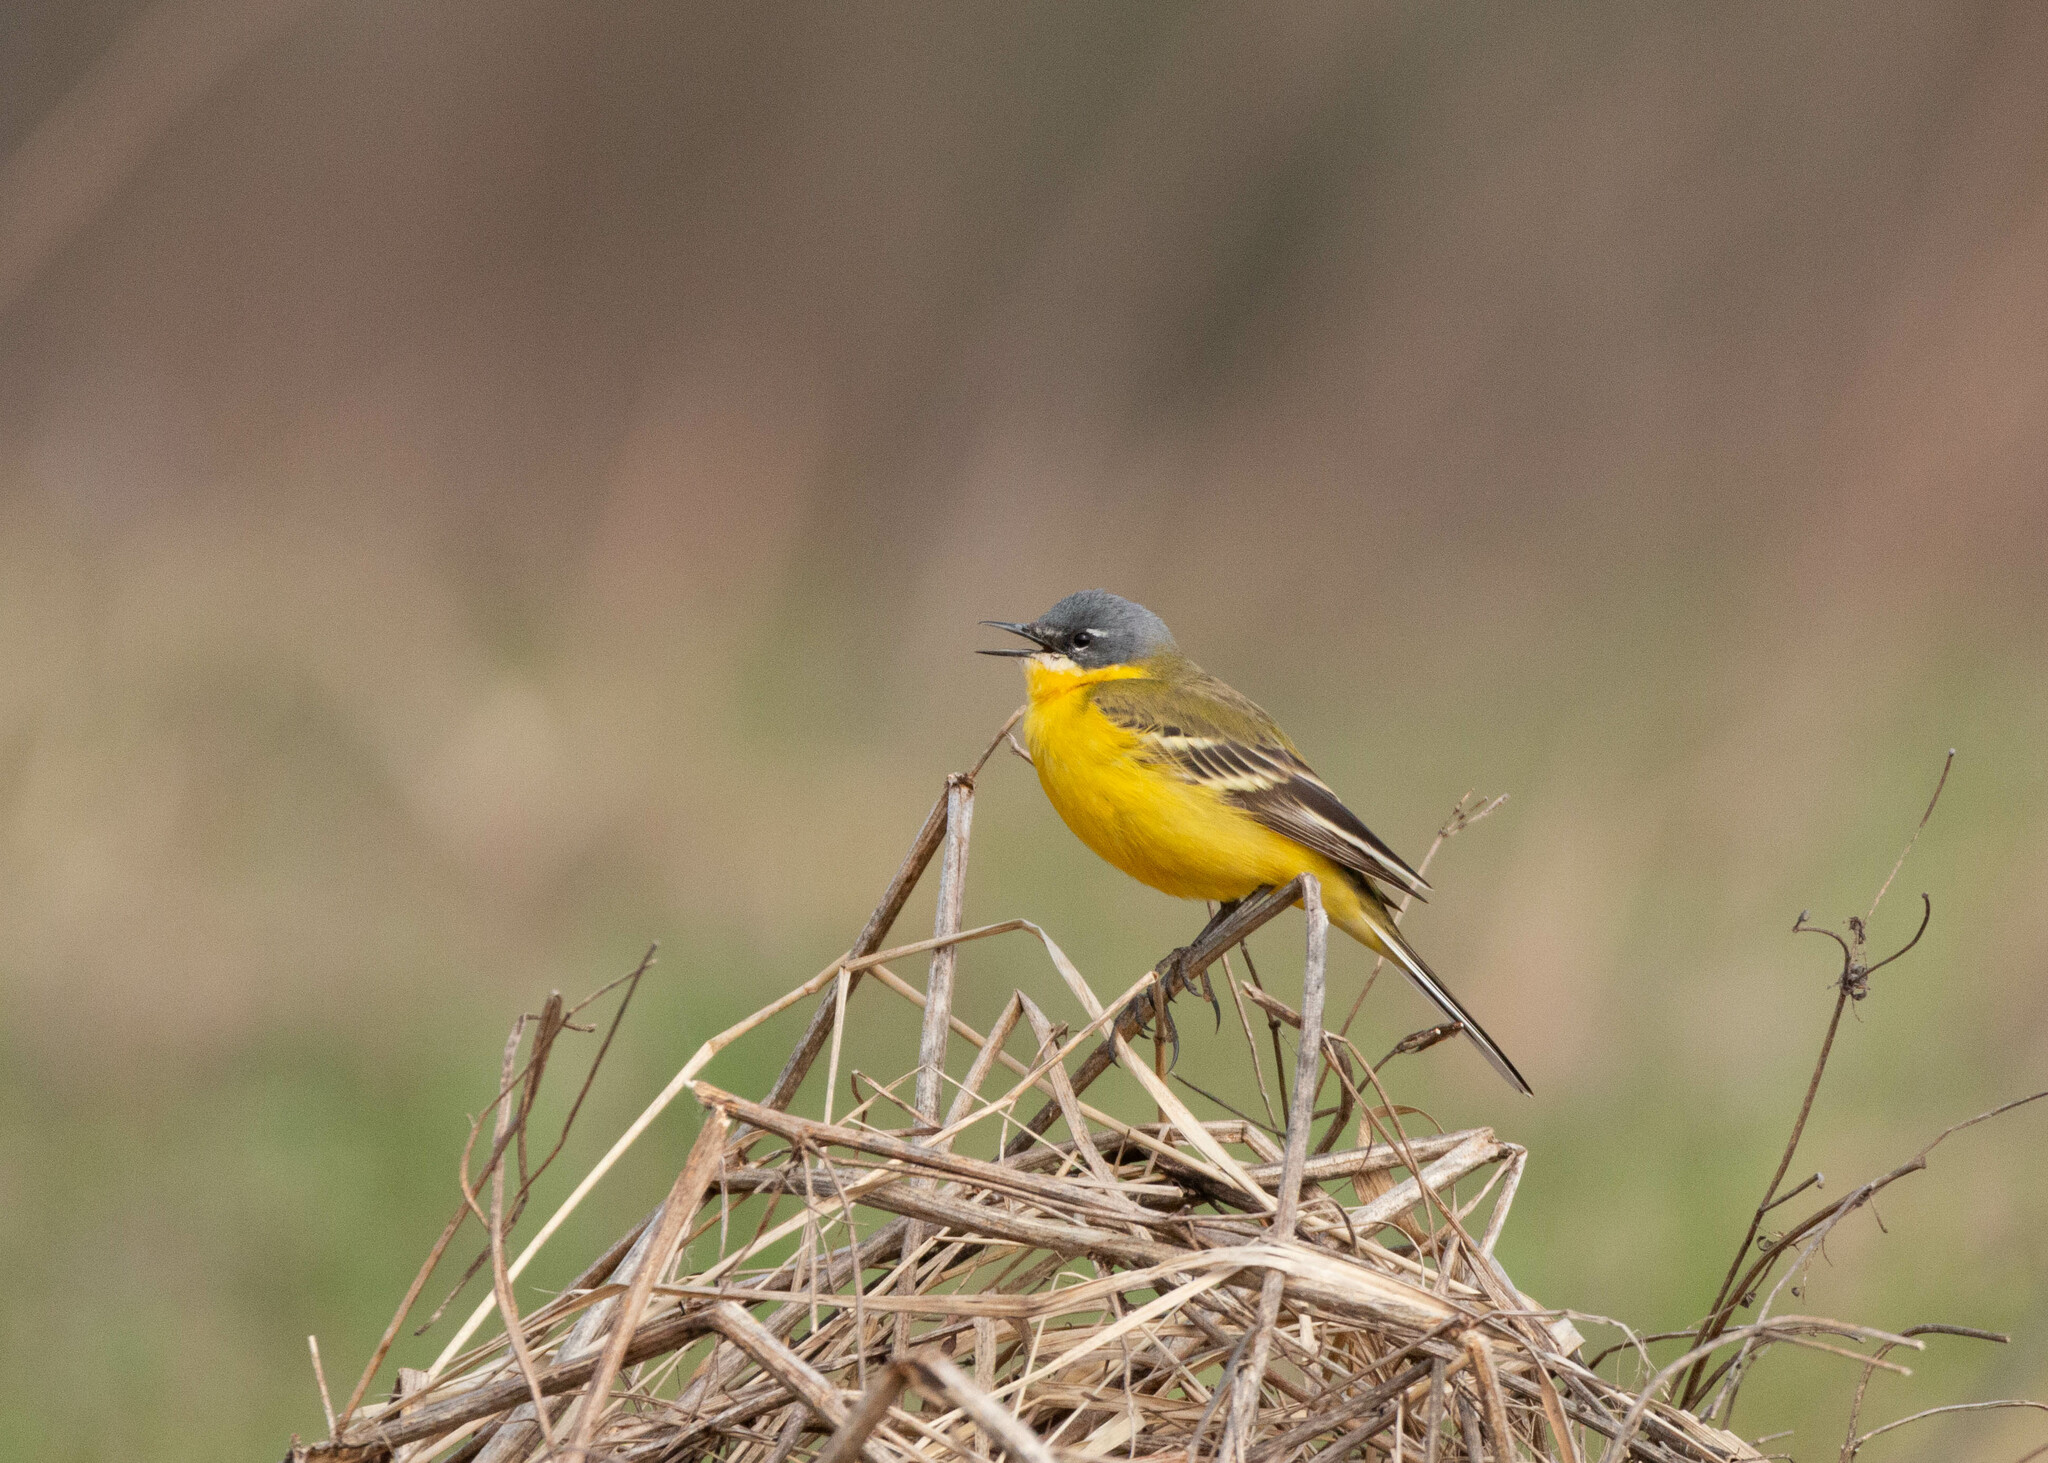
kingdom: Animalia
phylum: Chordata
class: Aves
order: Passeriformes
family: Motacillidae
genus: Motacilla
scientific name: Motacilla flava
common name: Western yellow wagtail
